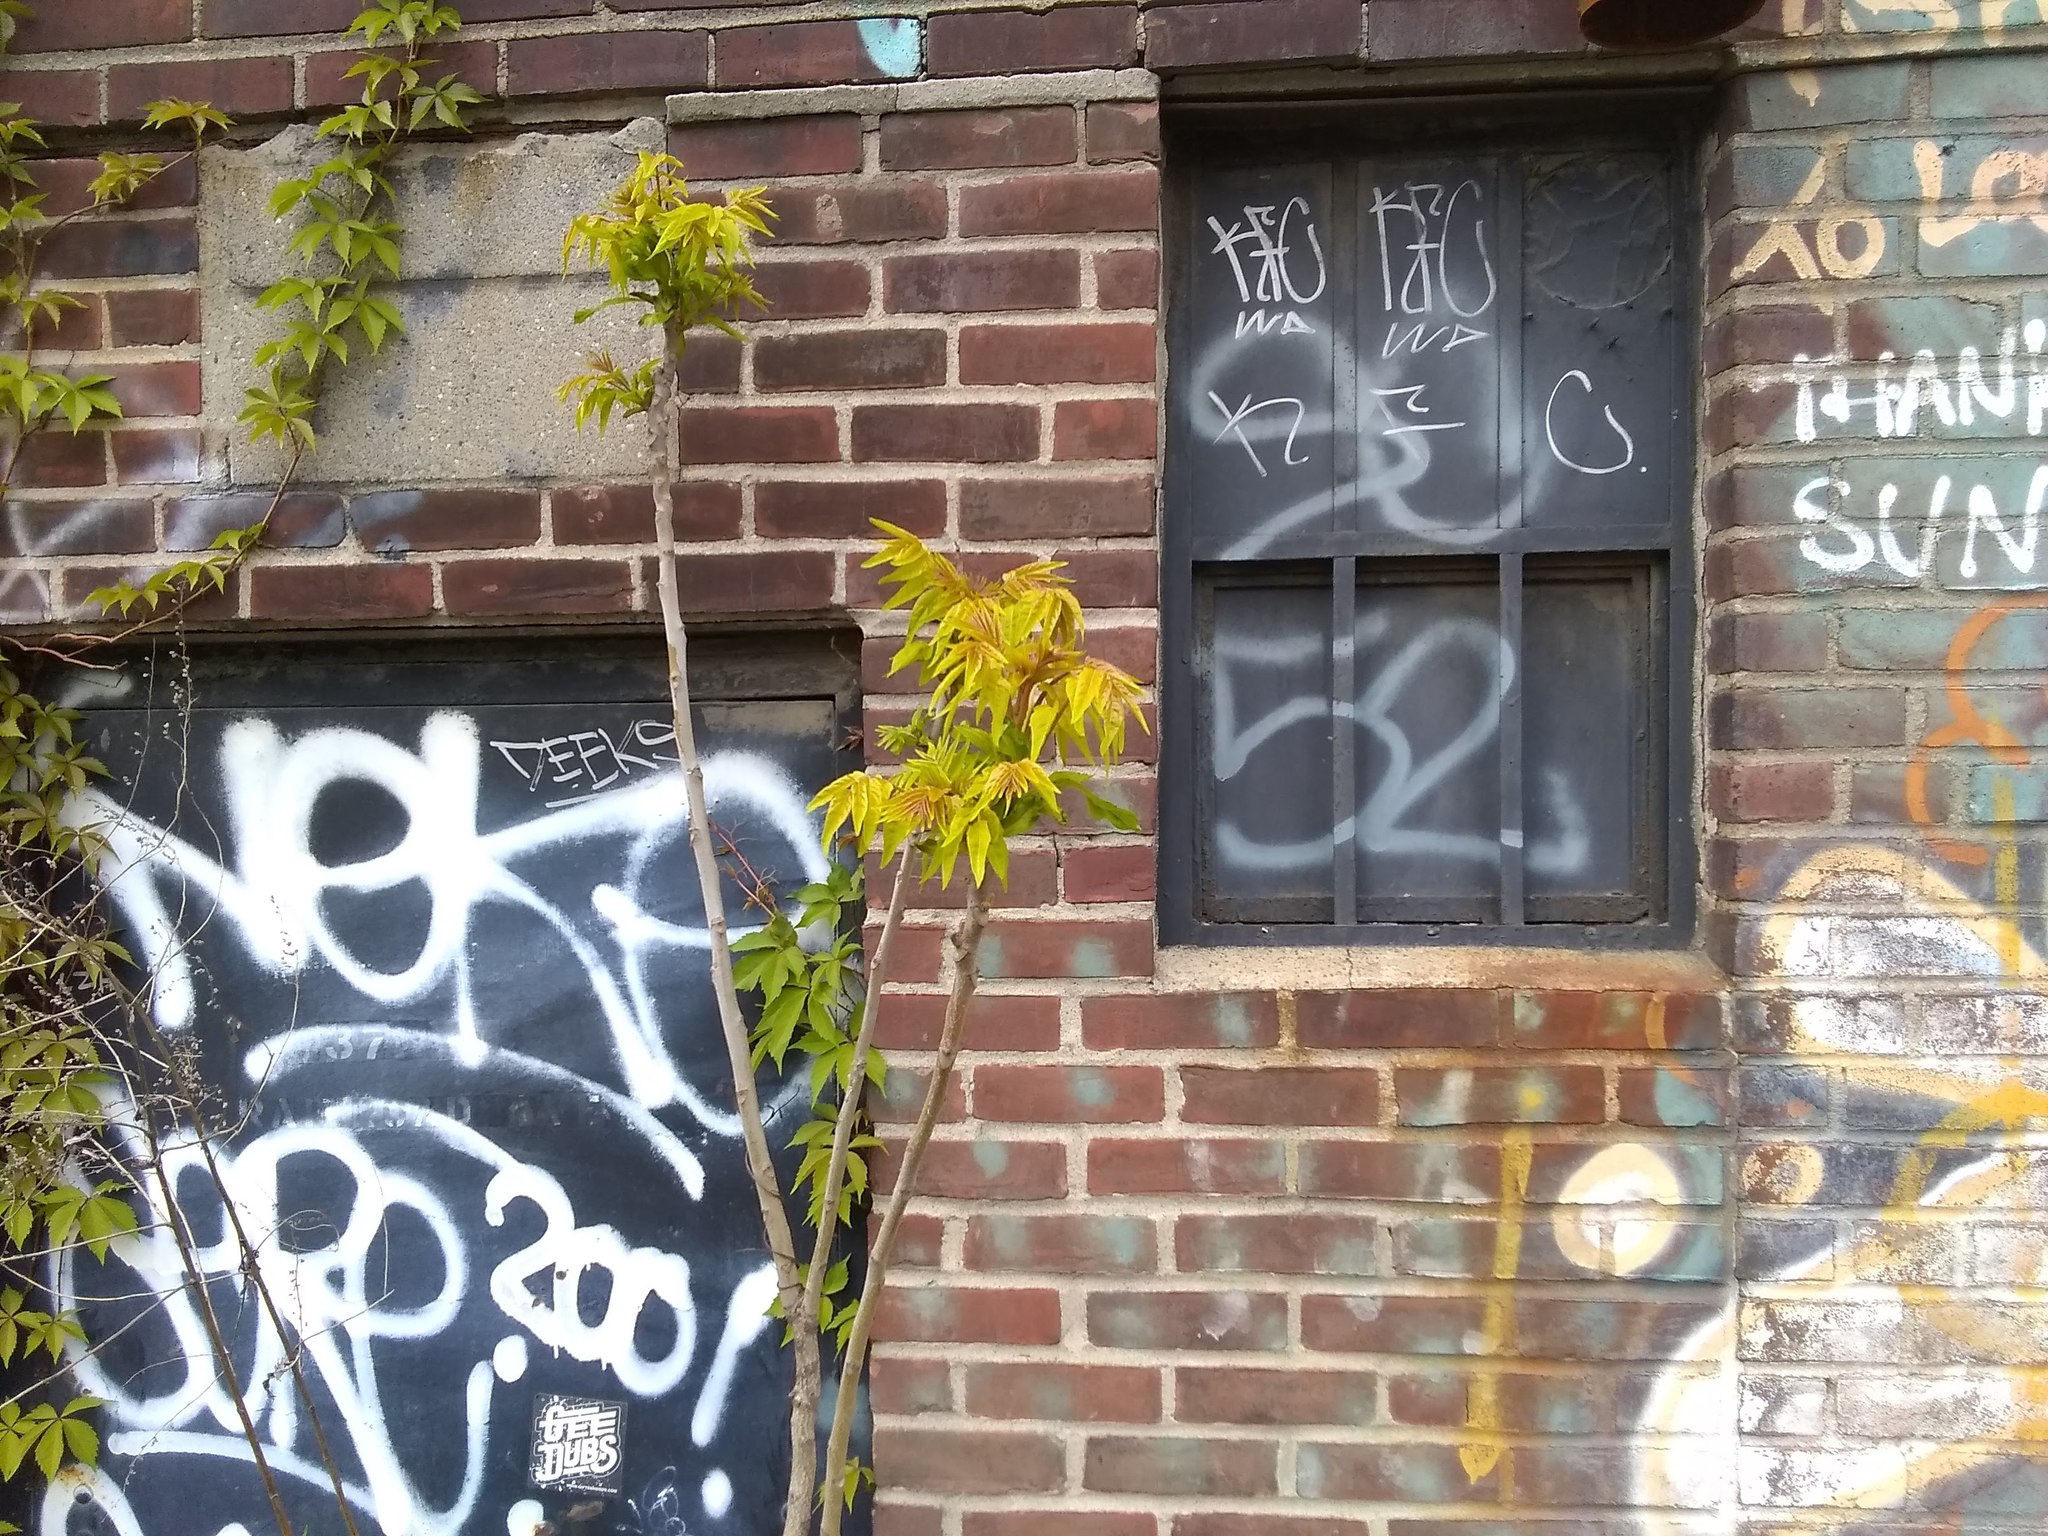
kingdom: Plantae
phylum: Tracheophyta
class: Magnoliopsida
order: Sapindales
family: Simaroubaceae
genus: Ailanthus
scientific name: Ailanthus altissima
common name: Tree-of-heaven
